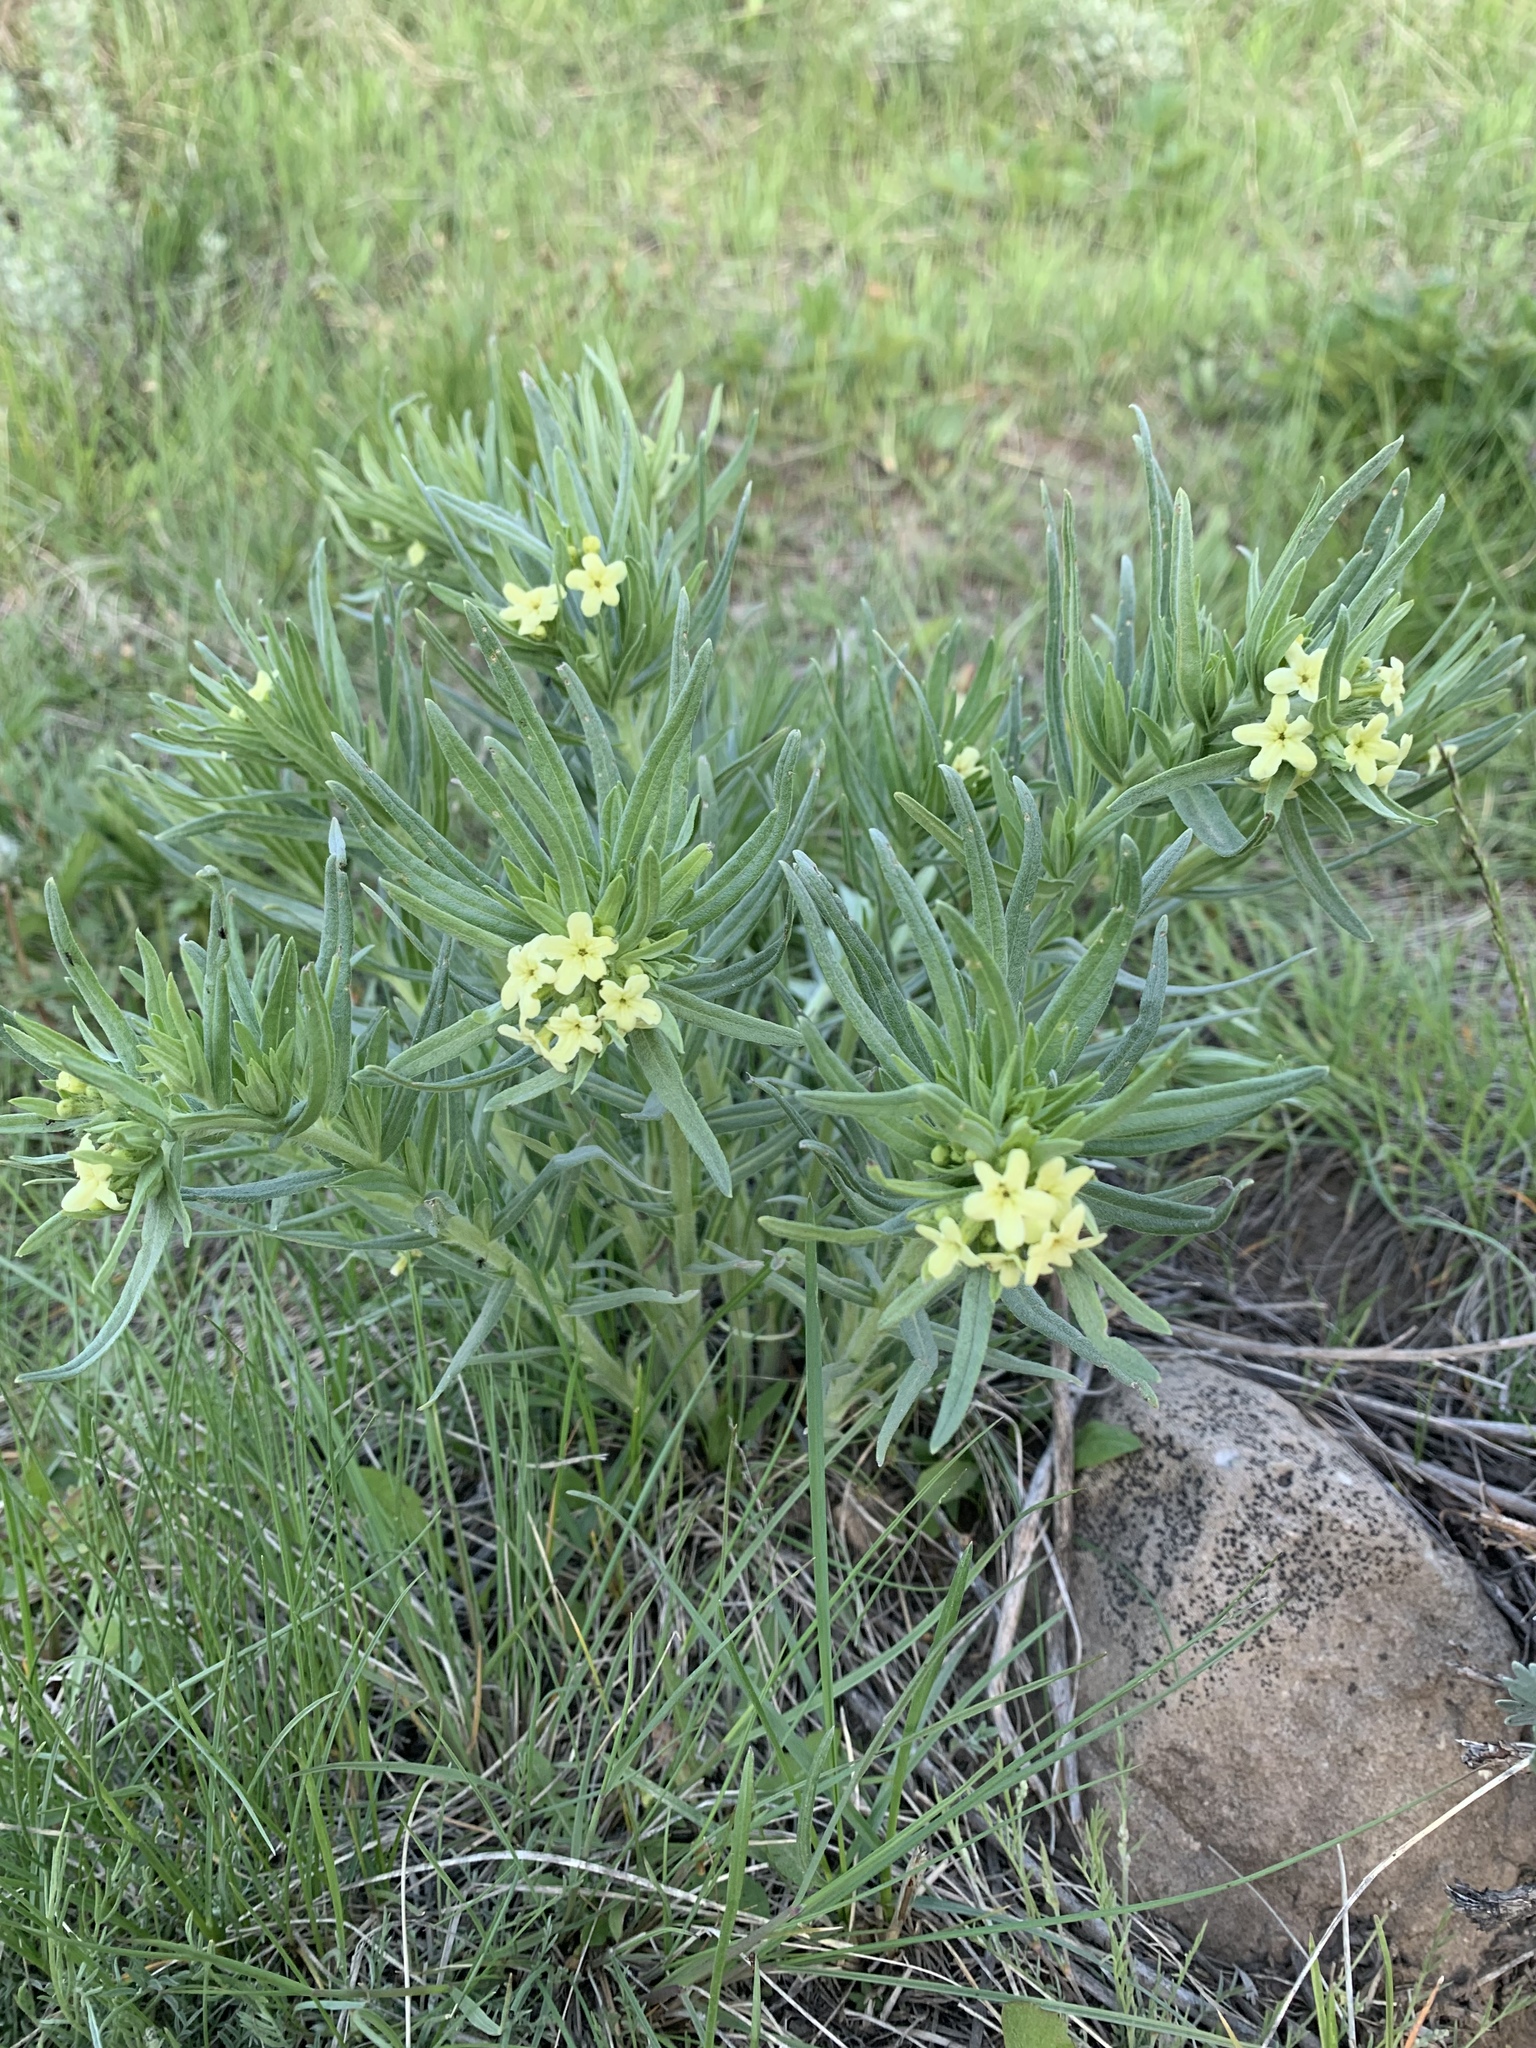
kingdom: Plantae
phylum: Tracheophyta
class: Magnoliopsida
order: Boraginales
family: Boraginaceae
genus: Lithospermum
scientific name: Lithospermum ruderale
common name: Western gromwell
